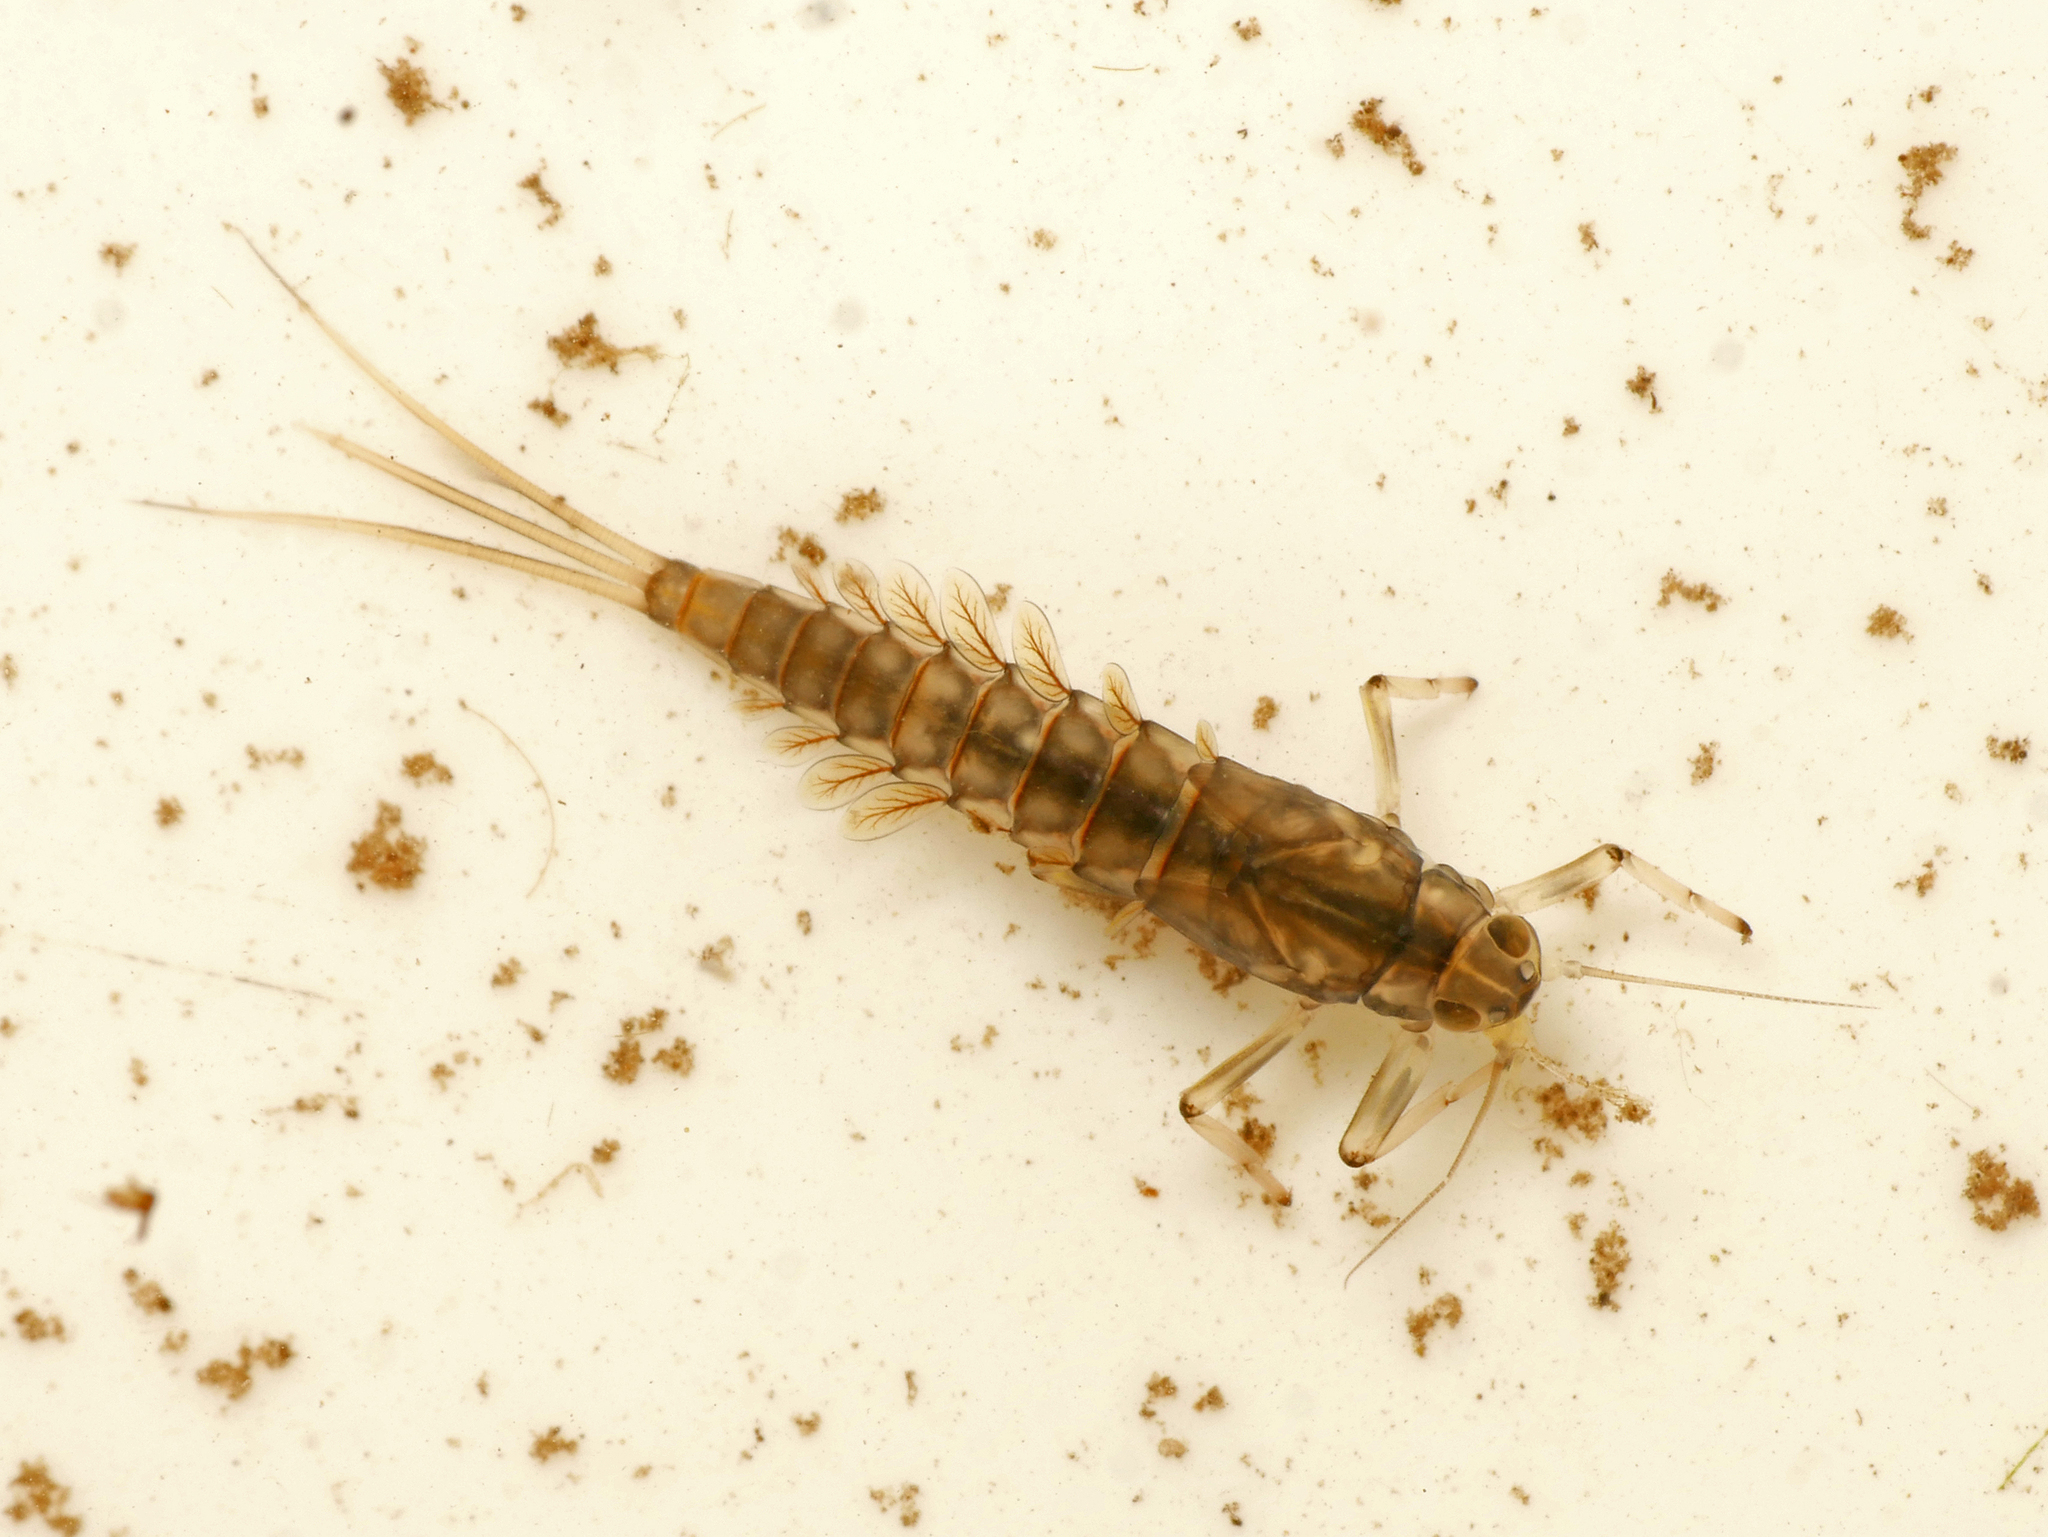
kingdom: Animalia
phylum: Arthropoda
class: Insecta
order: Ephemeroptera
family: Baetidae
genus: Baetis
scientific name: Baetis rhodani
